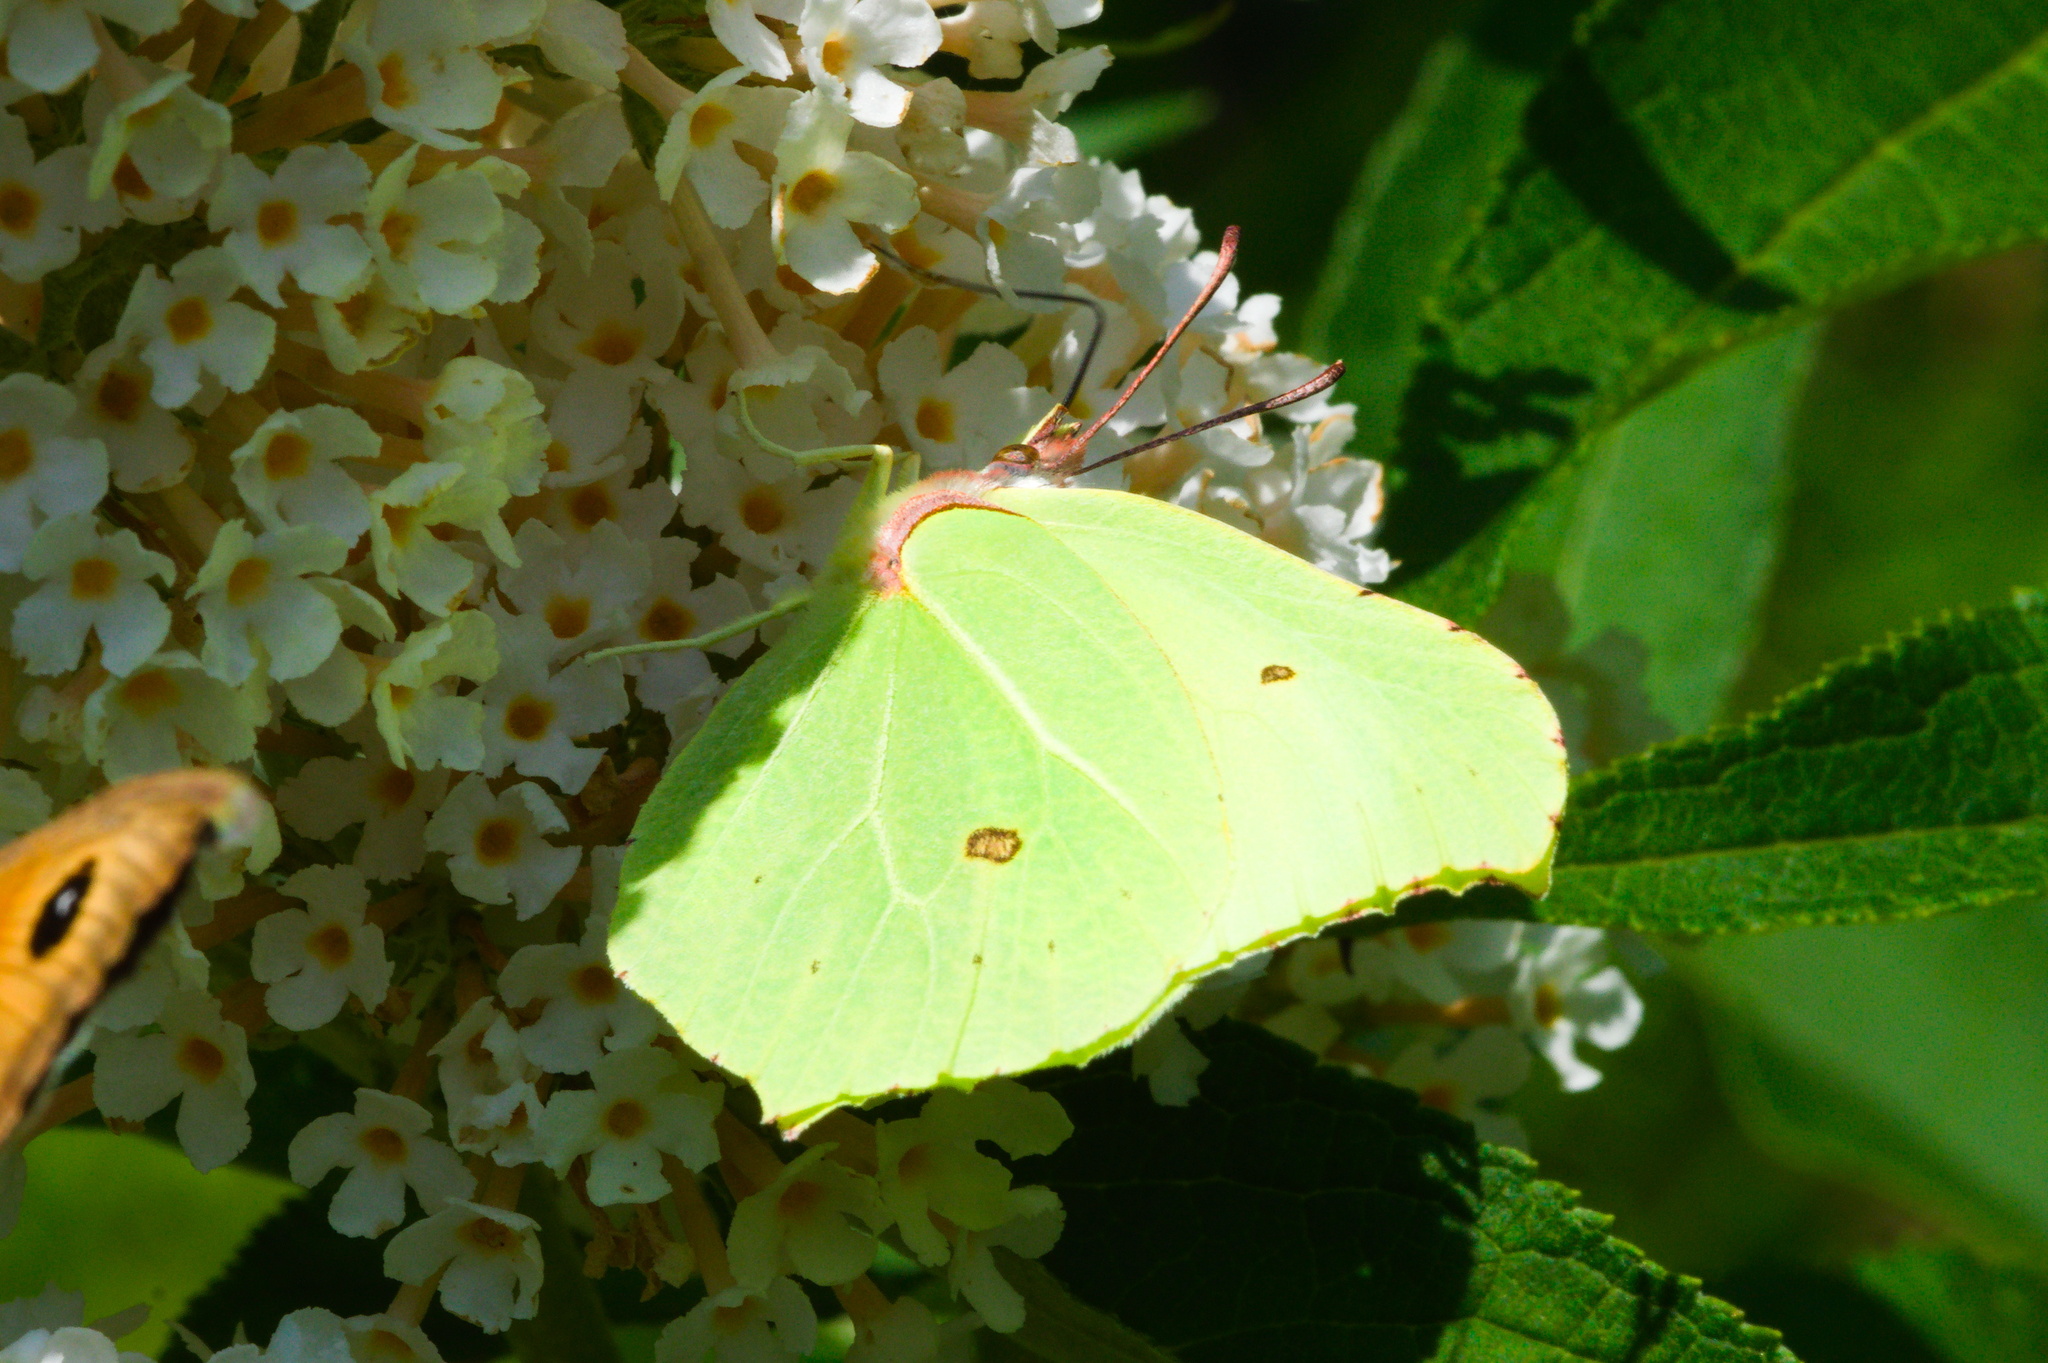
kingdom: Animalia
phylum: Arthropoda
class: Insecta
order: Lepidoptera
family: Pieridae
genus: Gonepteryx
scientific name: Gonepteryx rhamni
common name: Brimstone
